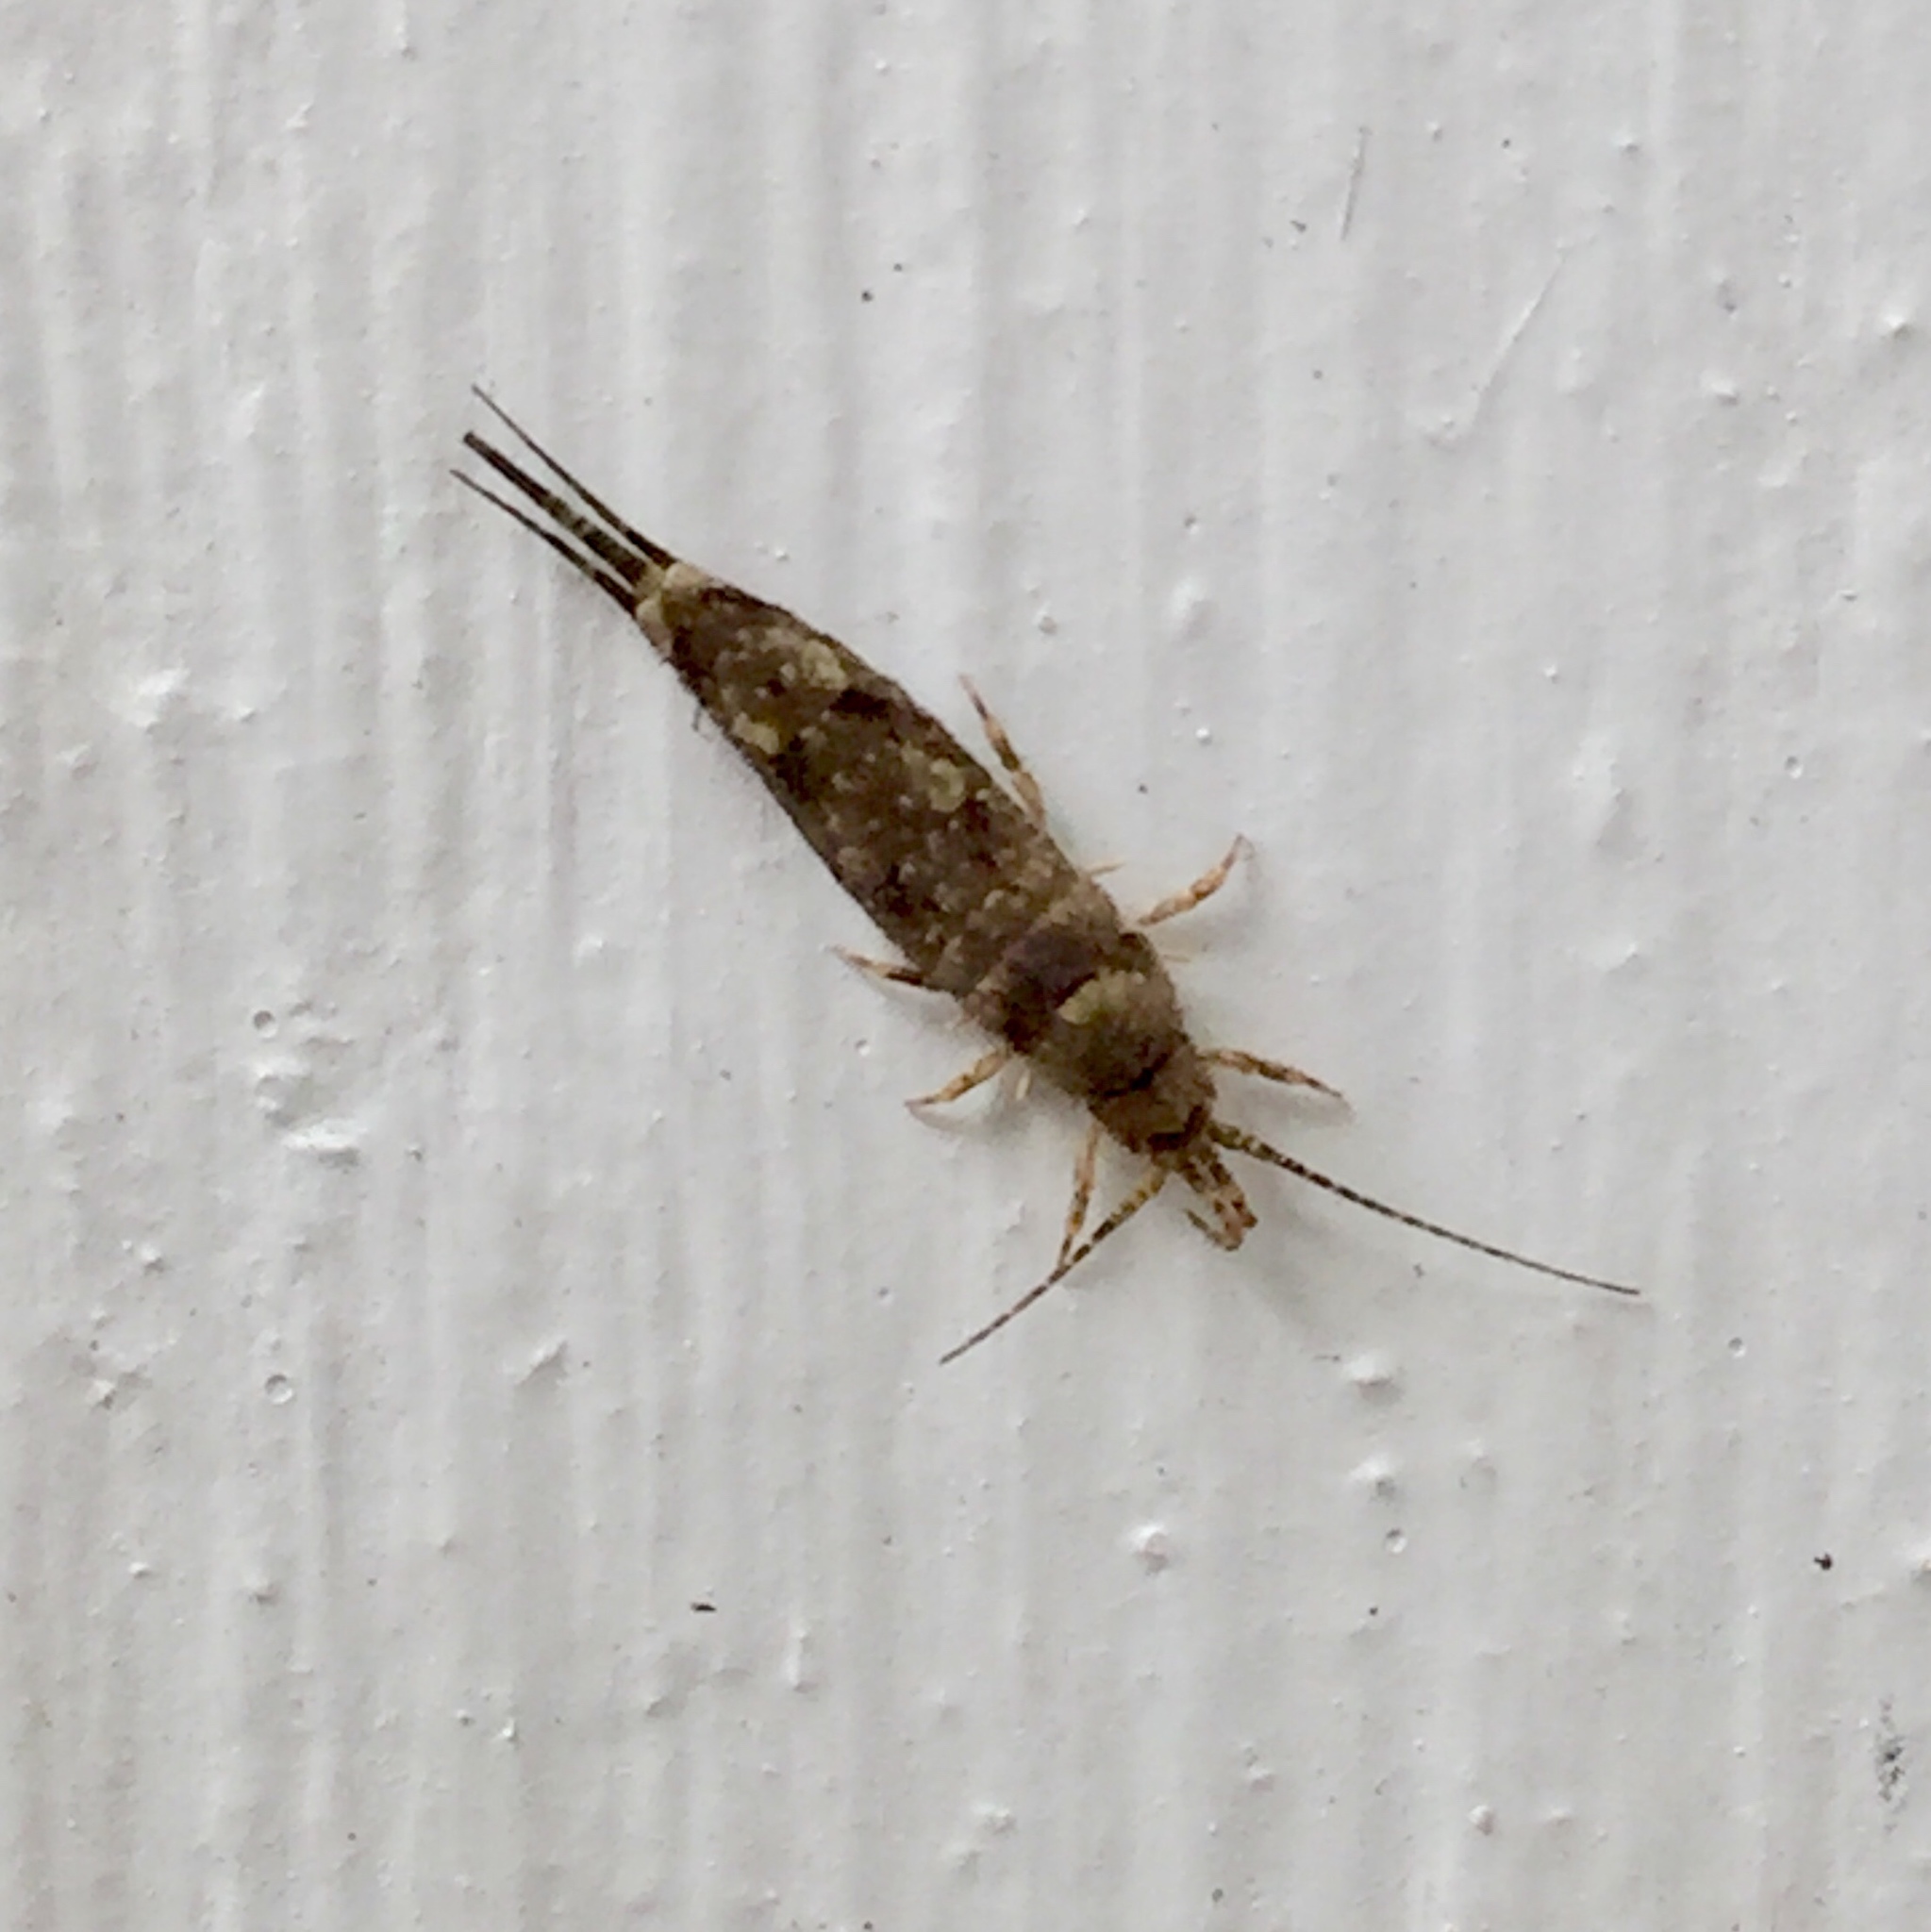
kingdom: Animalia
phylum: Arthropoda
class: Insecta
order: Archaeognatha
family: Machilidae
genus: Trigoniophthalmus
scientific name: Trigoniophthalmus alternatus
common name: Jumping bristletail
